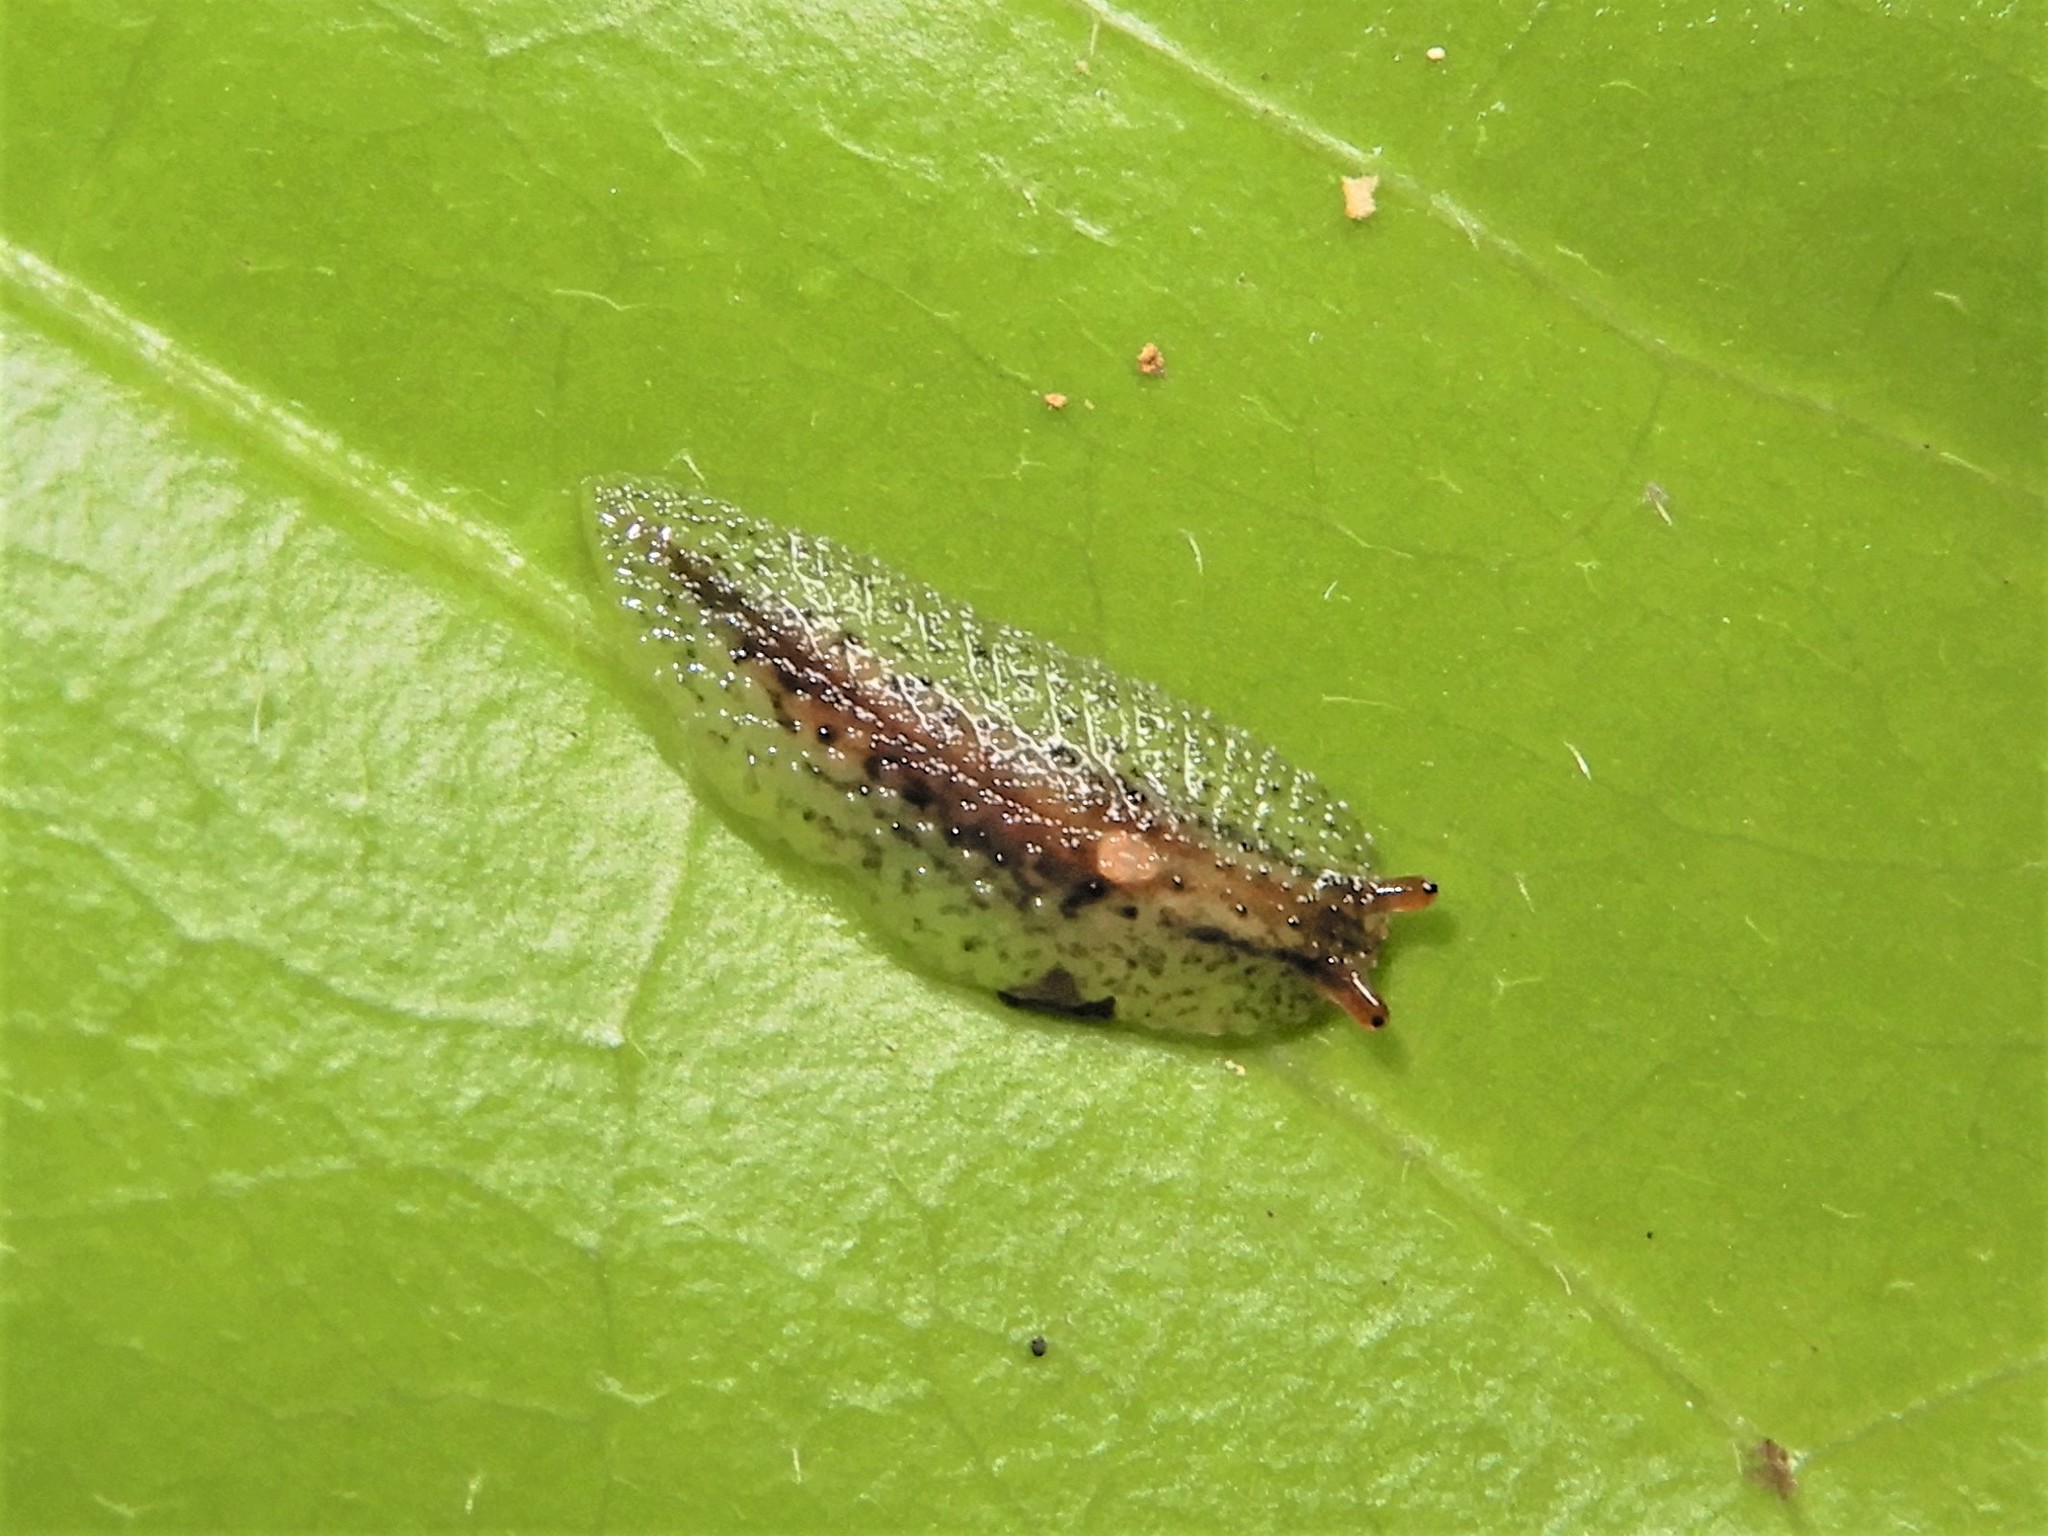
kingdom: Animalia
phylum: Mollusca
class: Gastropoda
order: Stylommatophora
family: Athoracophoridae
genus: Athoracophorus
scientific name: Athoracophorus
